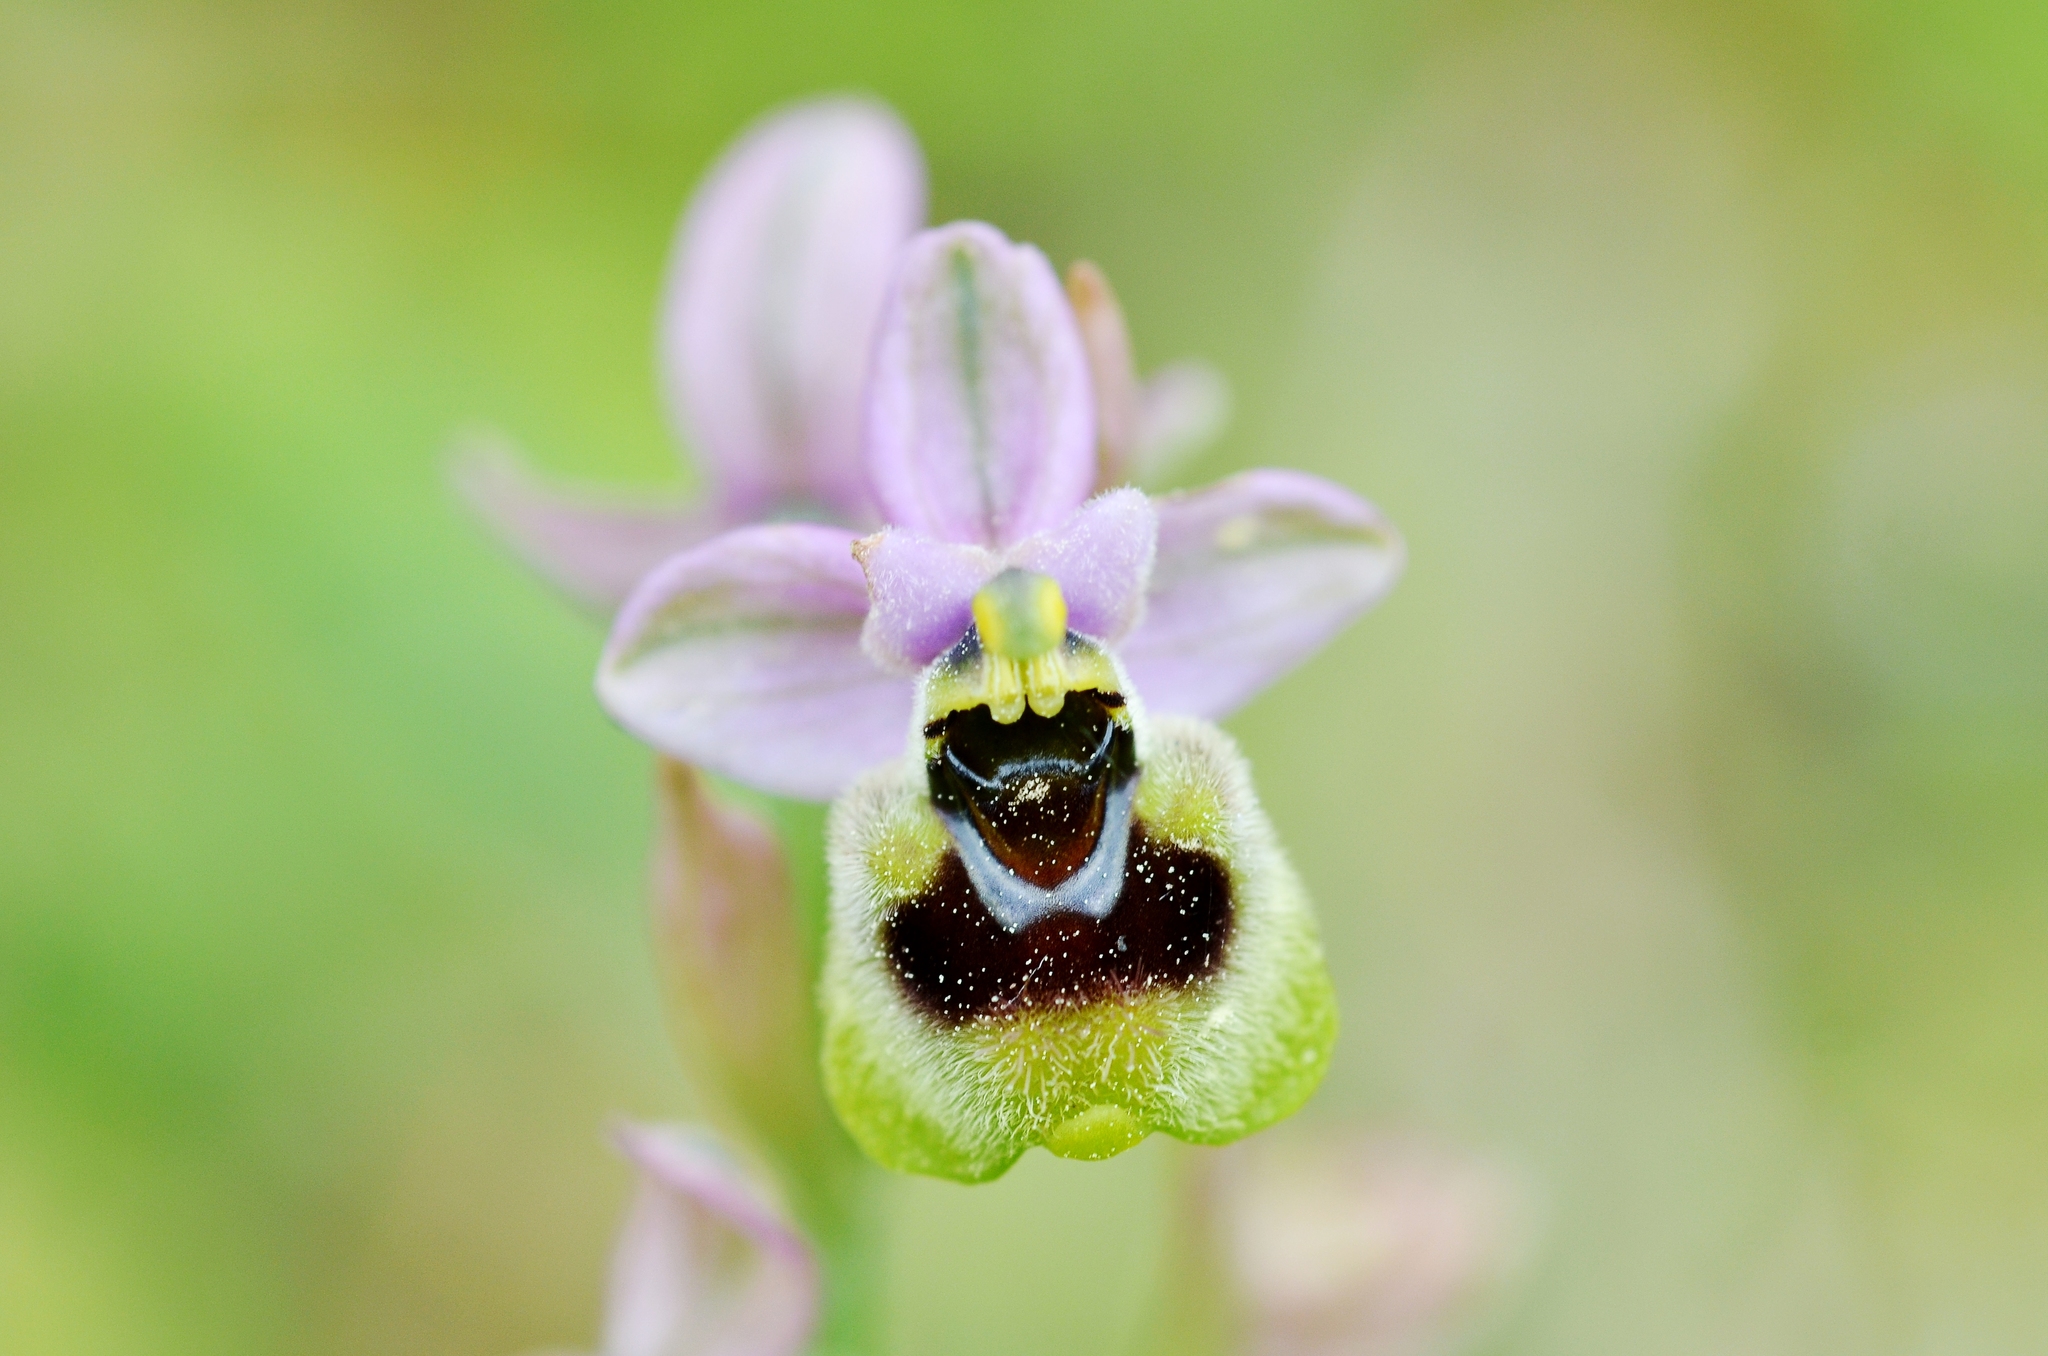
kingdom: Plantae
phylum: Tracheophyta
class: Liliopsida
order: Asparagales
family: Orchidaceae
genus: Ophrys
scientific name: Ophrys tenthredinifera
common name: Sawfly orchid
